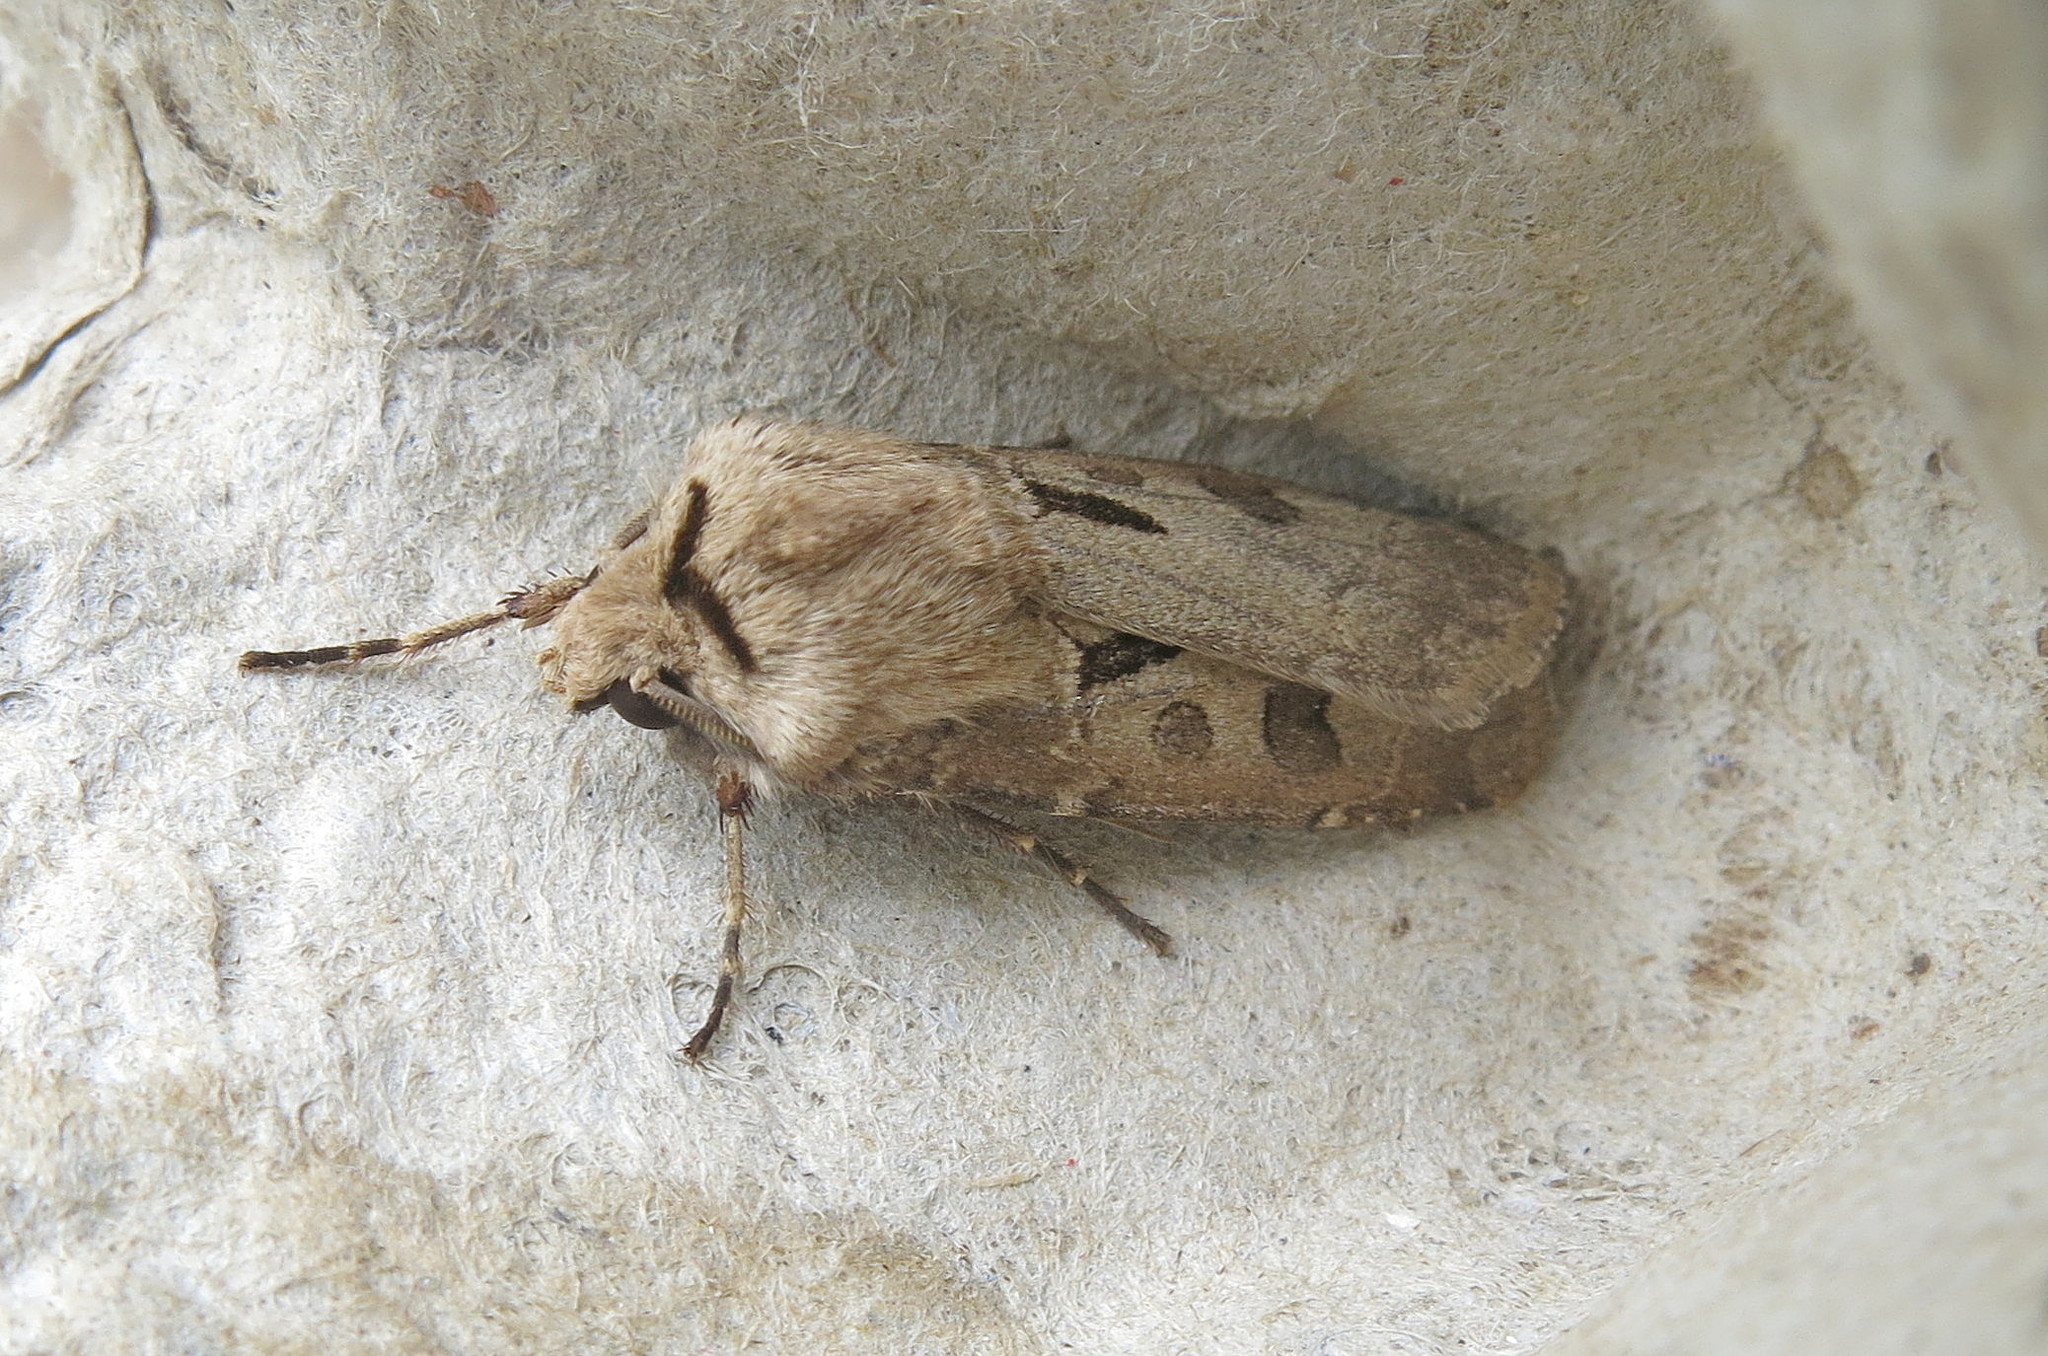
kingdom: Animalia
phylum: Arthropoda
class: Insecta
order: Lepidoptera
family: Noctuidae
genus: Agrotis
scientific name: Agrotis exclamationis
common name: Heart and dart
